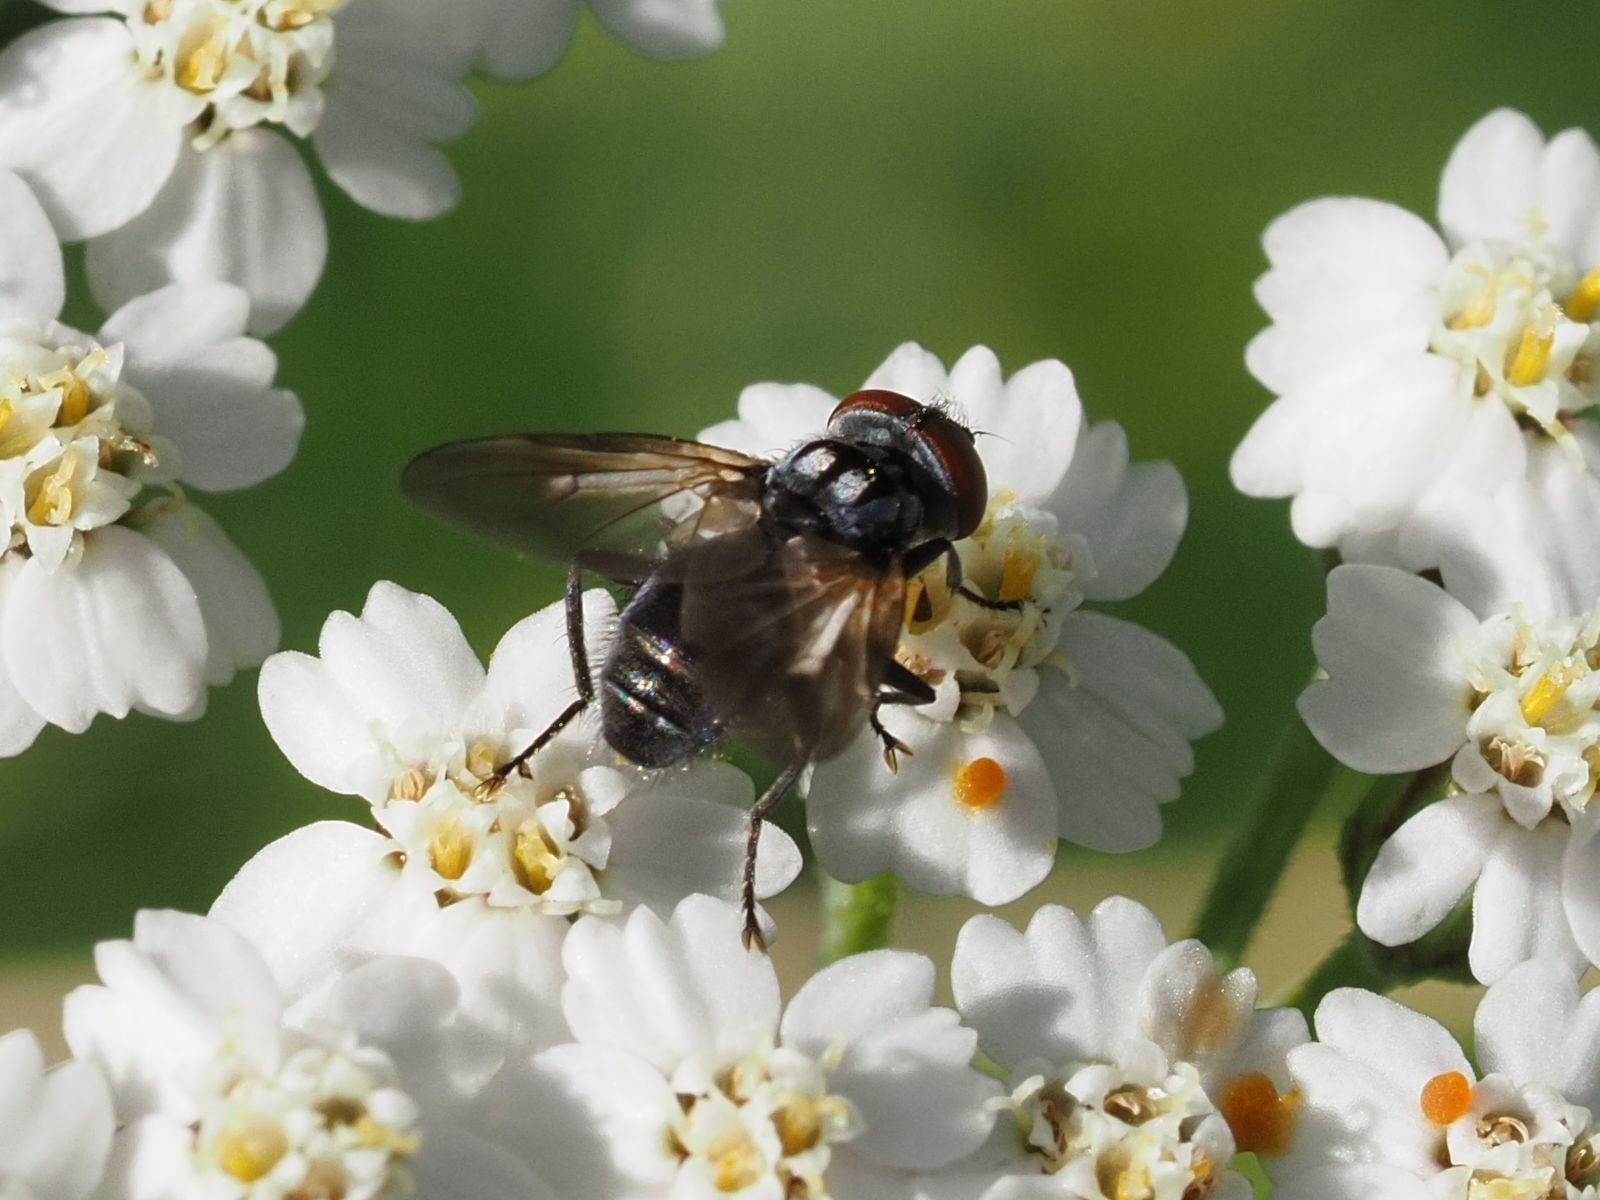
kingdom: Animalia
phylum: Arthropoda
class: Insecta
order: Diptera
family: Tachinidae
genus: Phasia
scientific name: Phasia obesa
